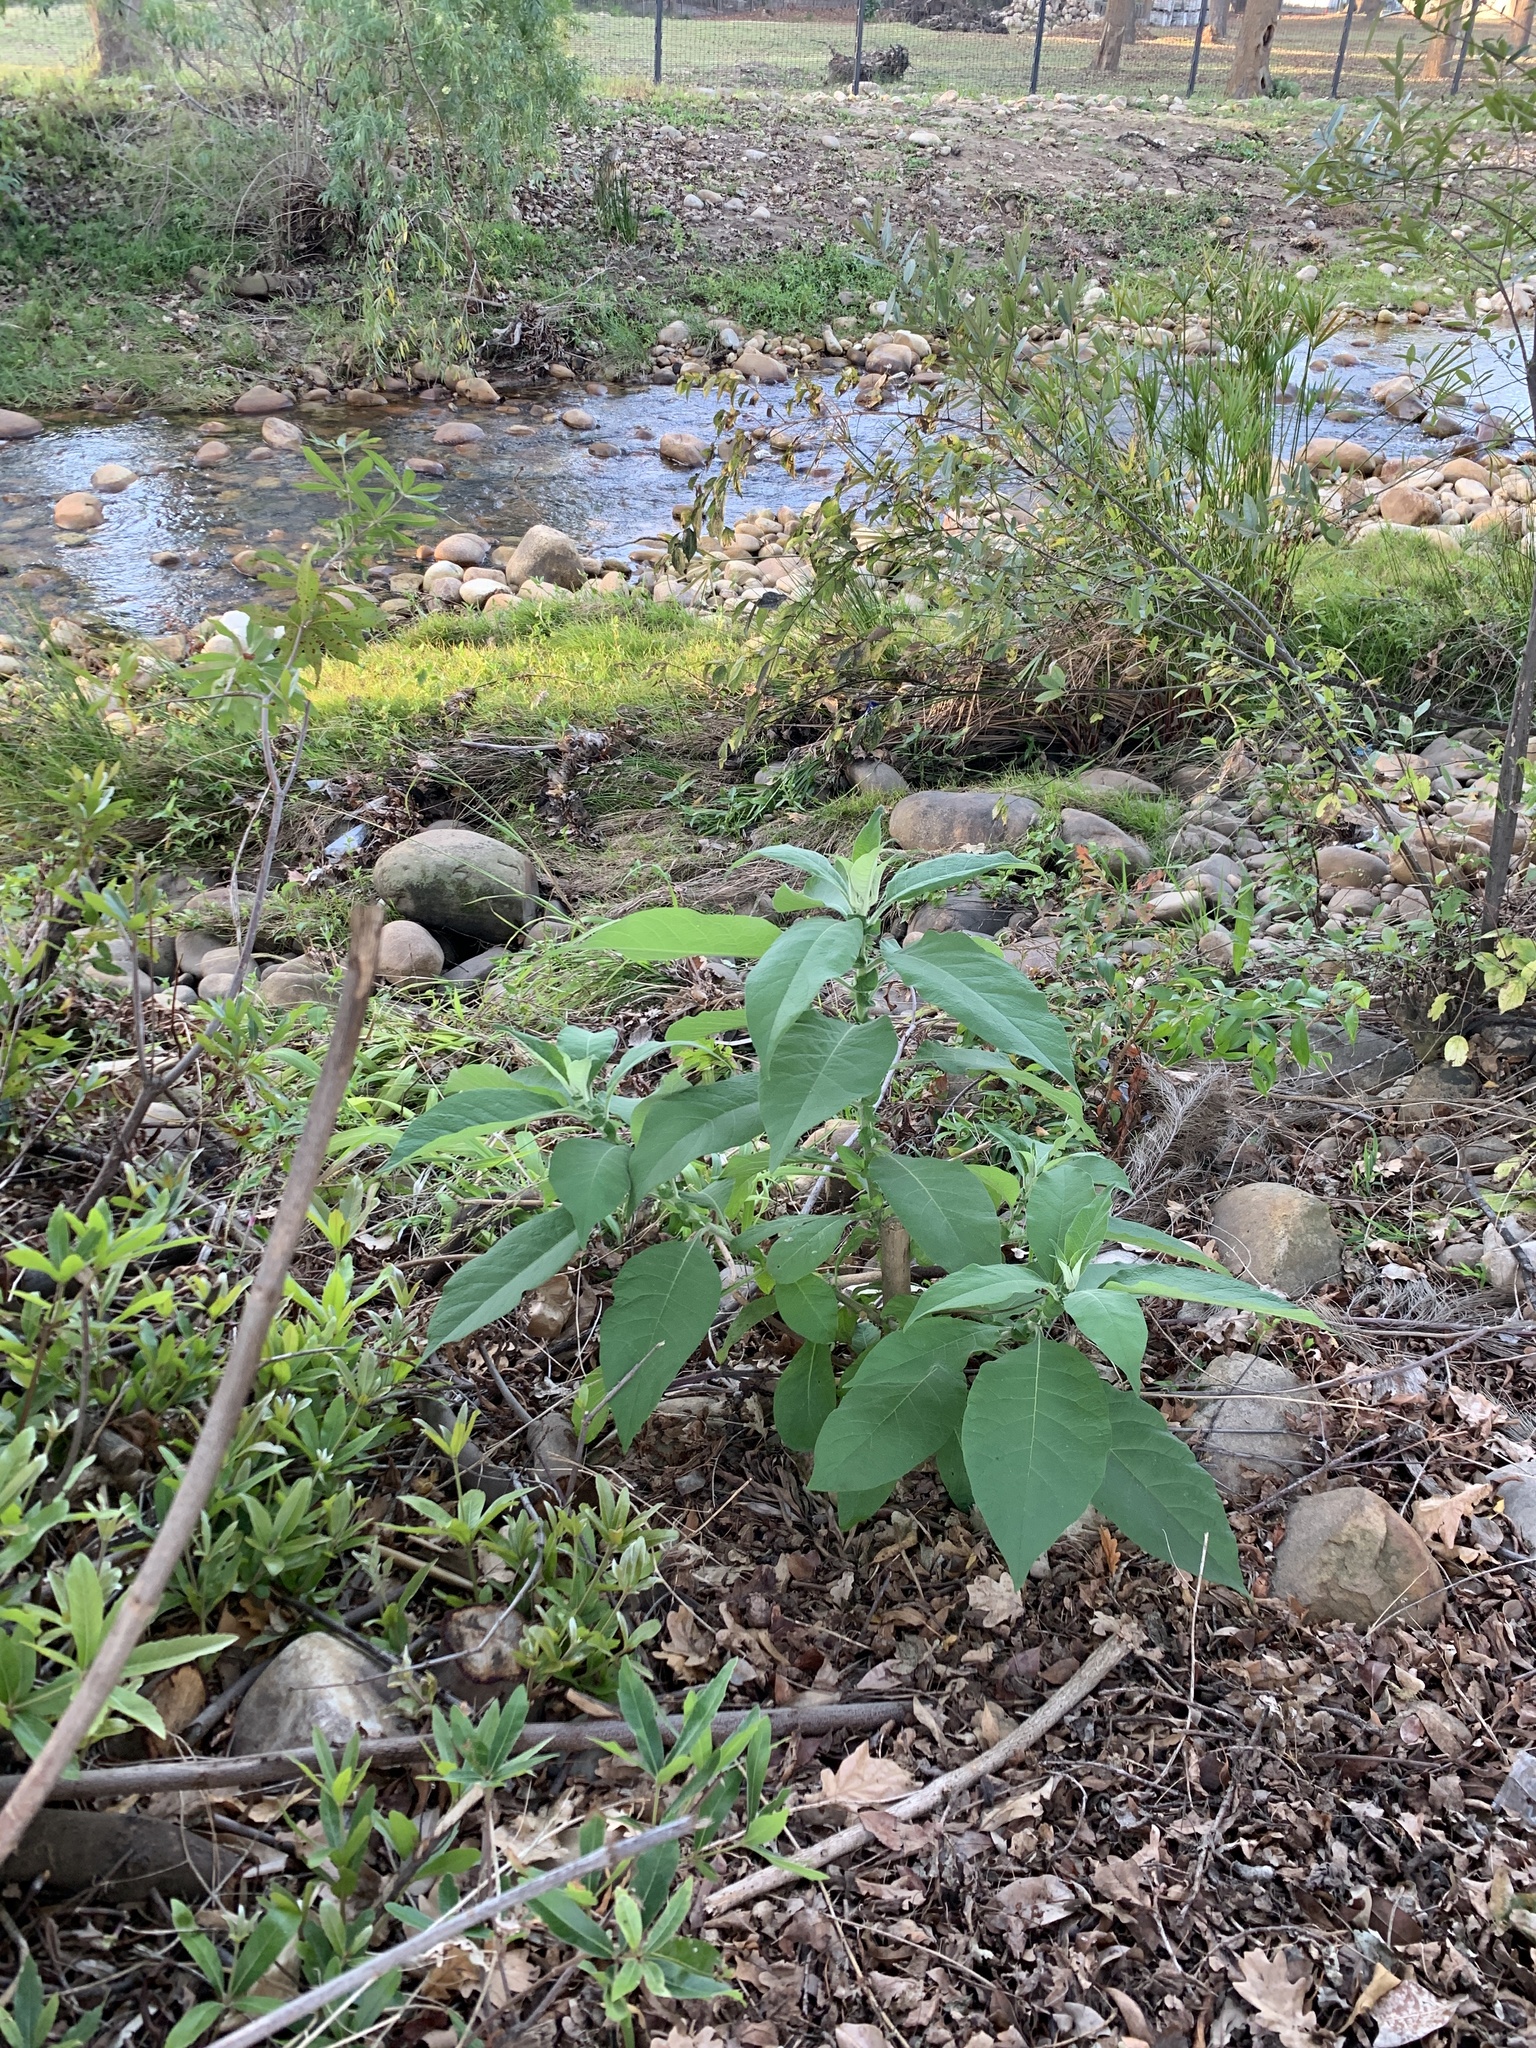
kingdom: Plantae
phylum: Tracheophyta
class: Magnoliopsida
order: Solanales
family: Solanaceae
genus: Solanum
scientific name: Solanum mauritianum
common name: Earleaf nightshade
